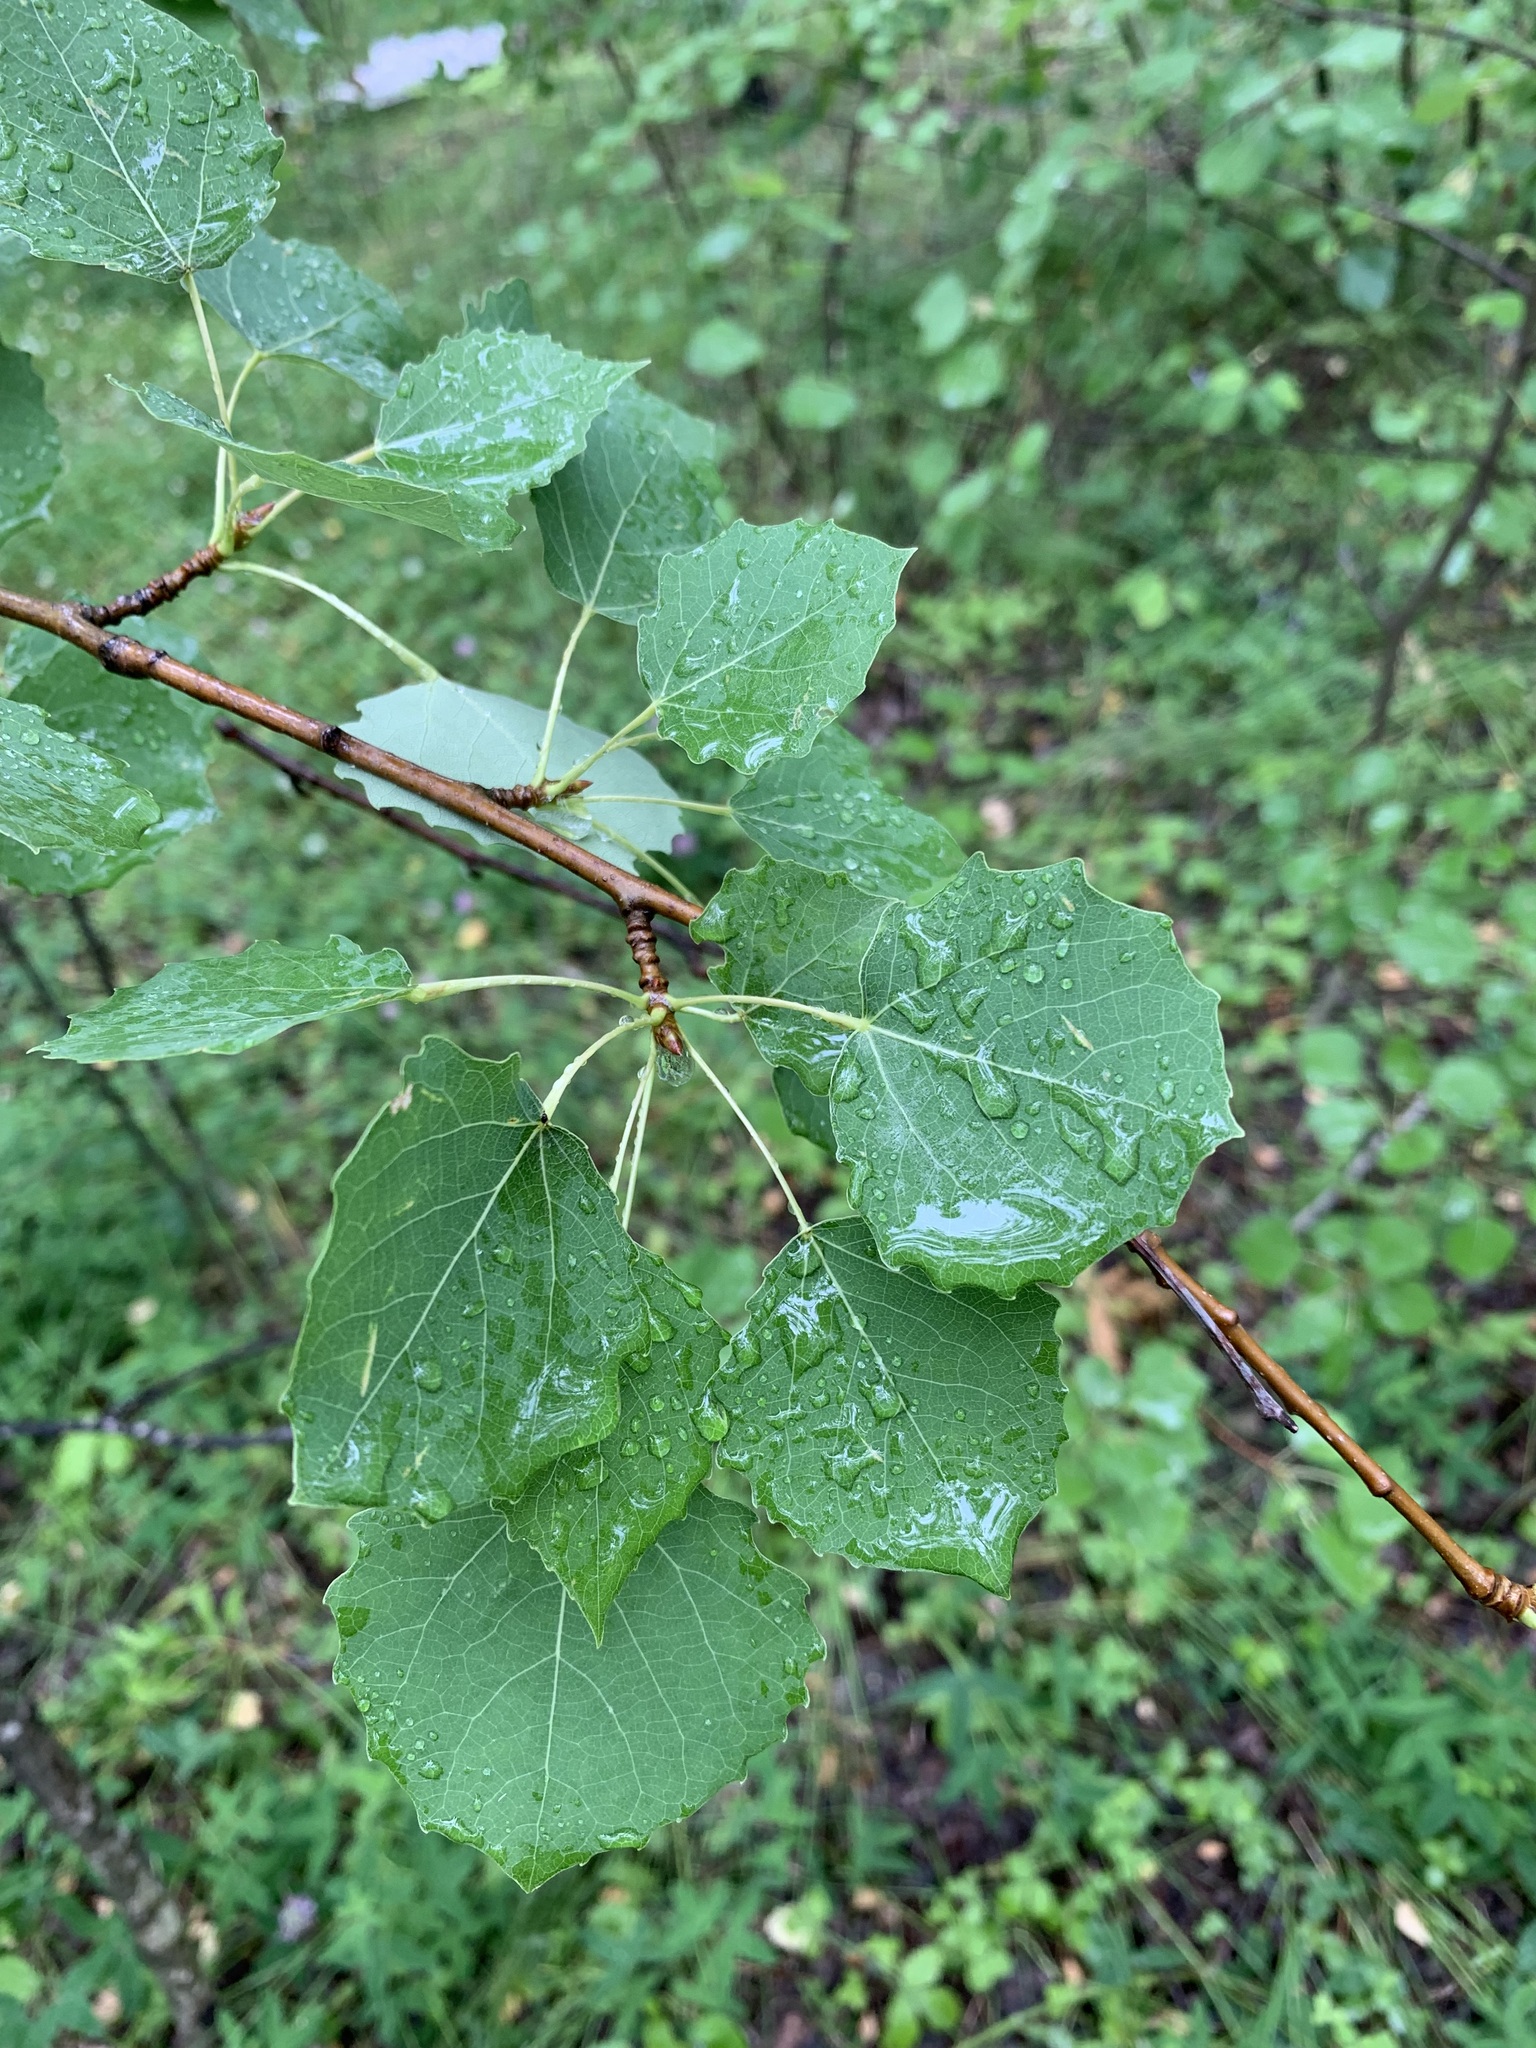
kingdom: Plantae
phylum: Tracheophyta
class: Magnoliopsida
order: Malpighiales
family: Salicaceae
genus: Populus
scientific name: Populus tremula
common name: European aspen
